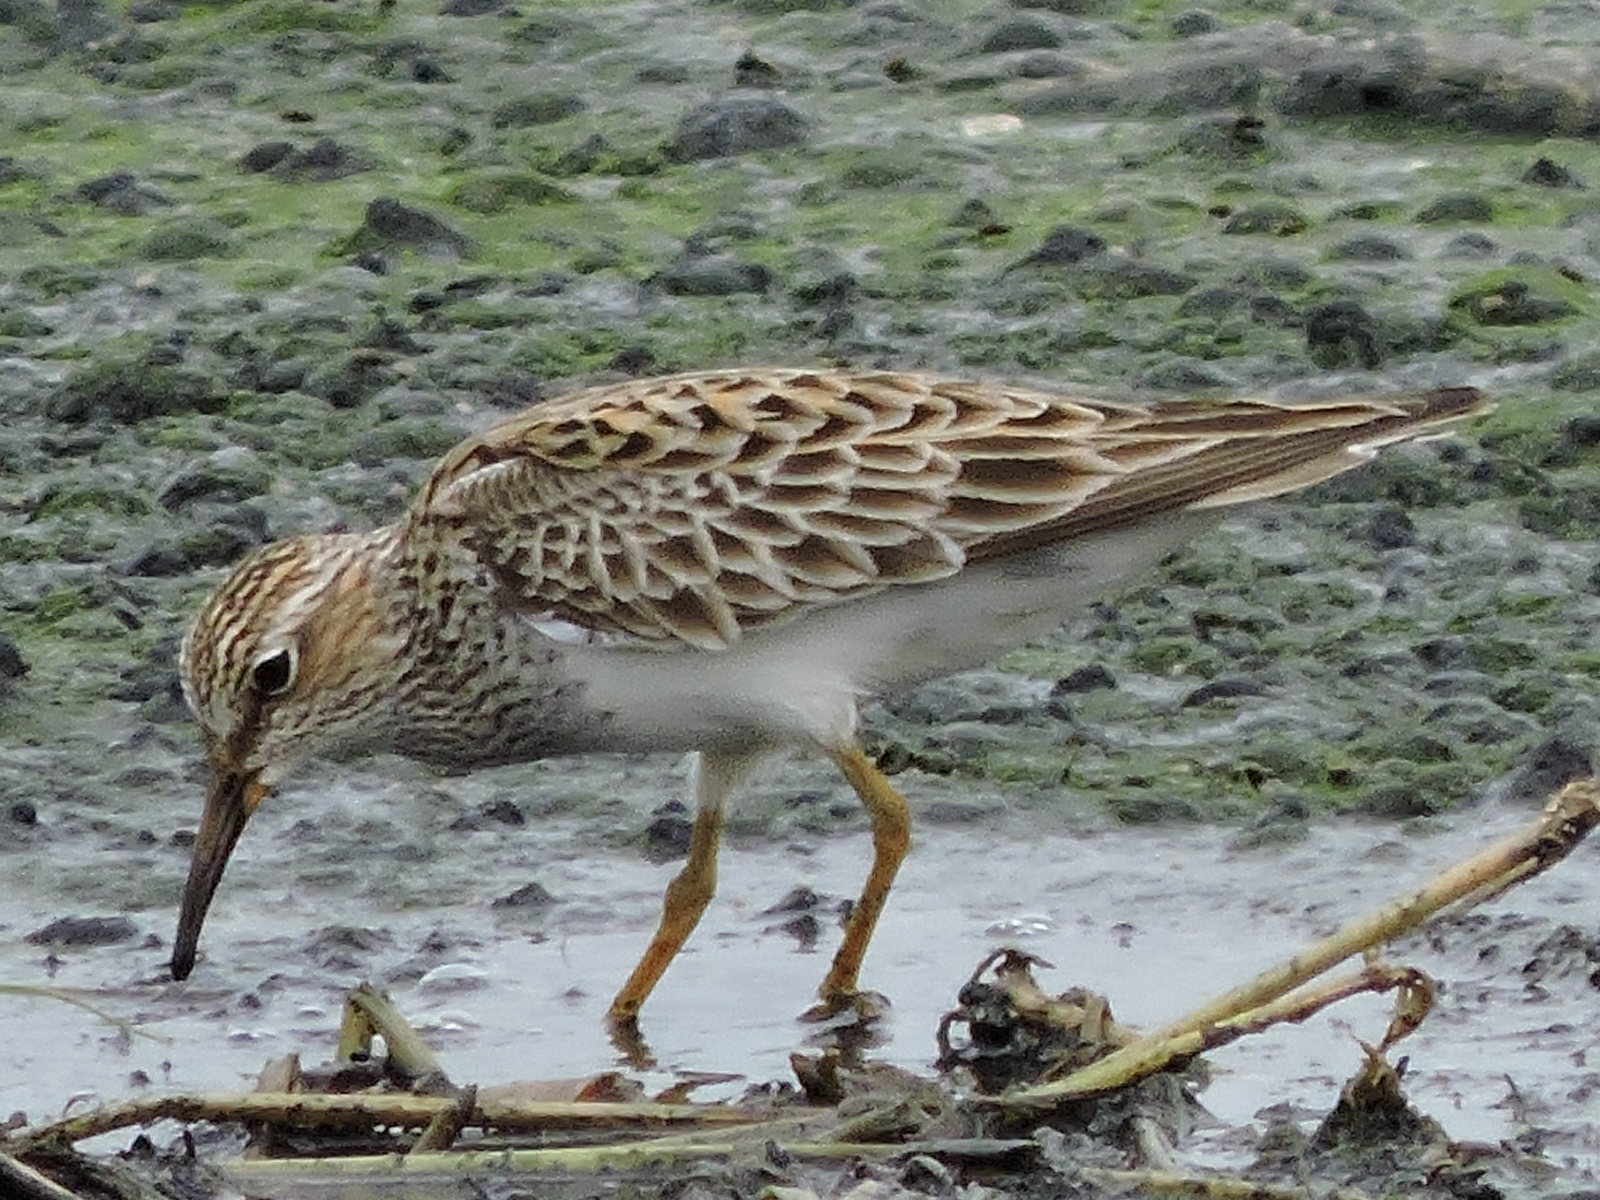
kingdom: Animalia
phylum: Chordata
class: Aves
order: Charadriiformes
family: Scolopacidae
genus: Calidris
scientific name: Calidris melanotos
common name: Pectoral sandpiper
